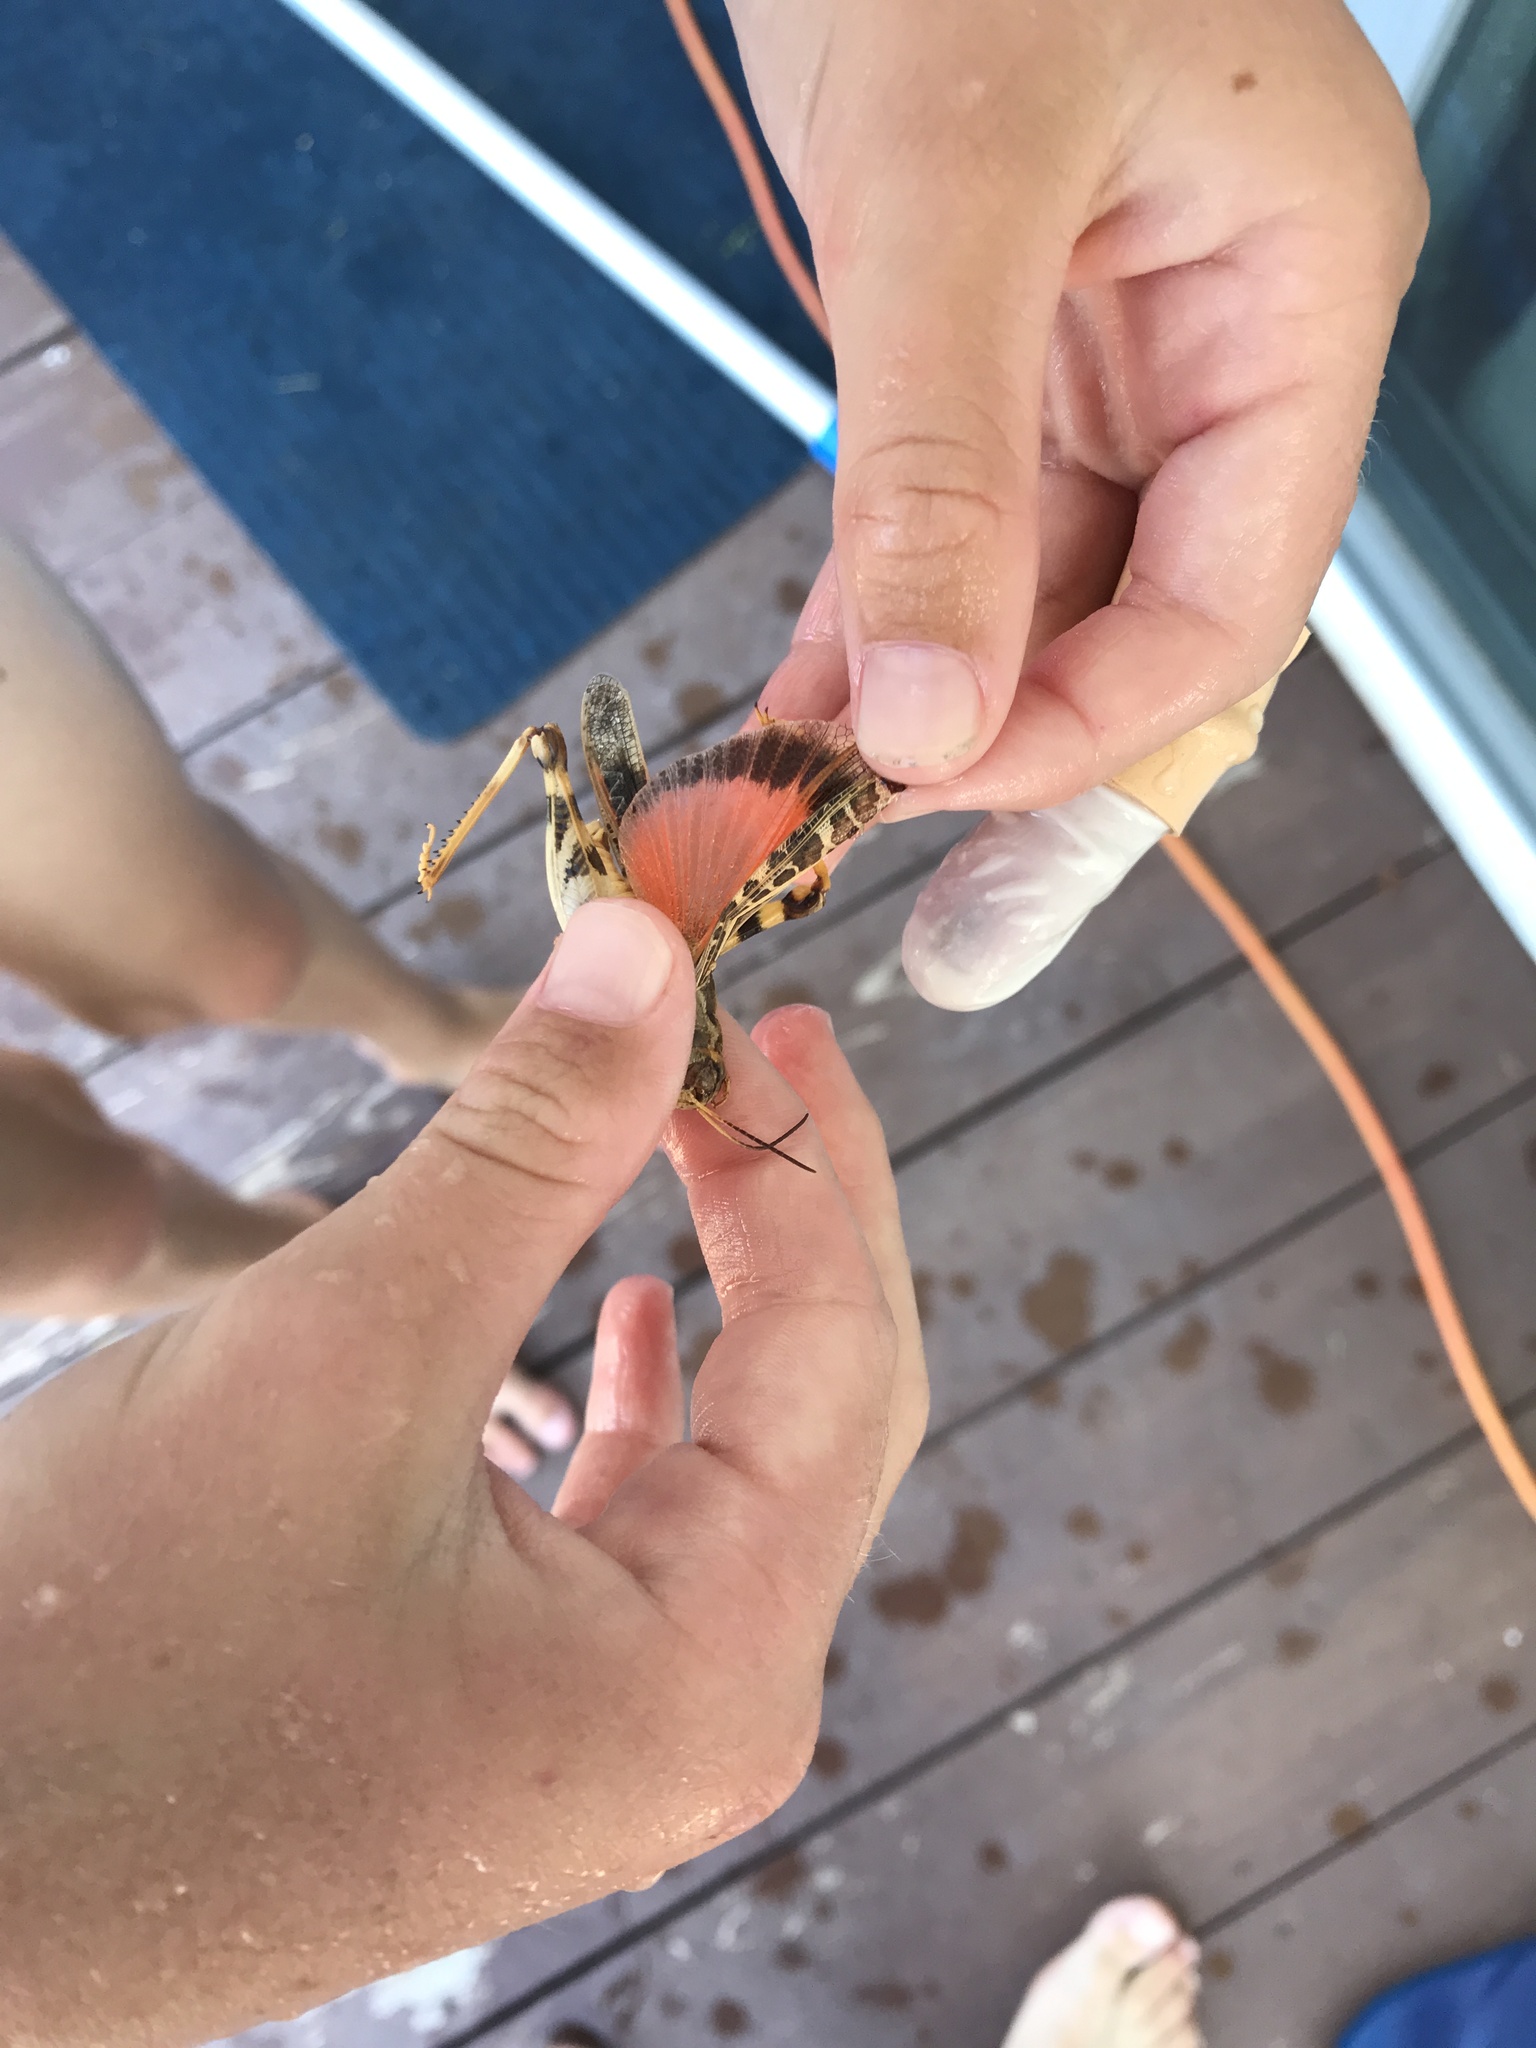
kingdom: Animalia
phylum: Arthropoda
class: Insecta
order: Orthoptera
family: Acrididae
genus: Hippiscus
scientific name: Hippiscus ocelote
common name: Wrinkled grasshopper
